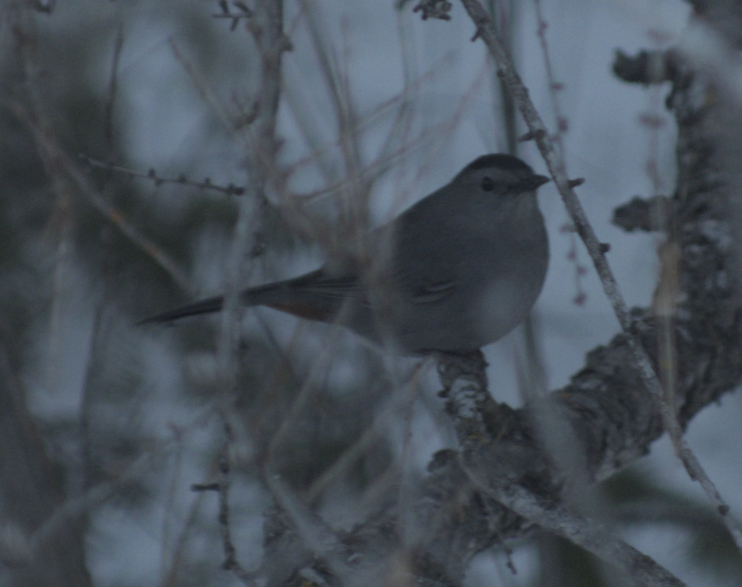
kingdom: Animalia
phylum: Chordata
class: Aves
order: Passeriformes
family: Mimidae
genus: Dumetella
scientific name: Dumetella carolinensis
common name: Gray catbird
